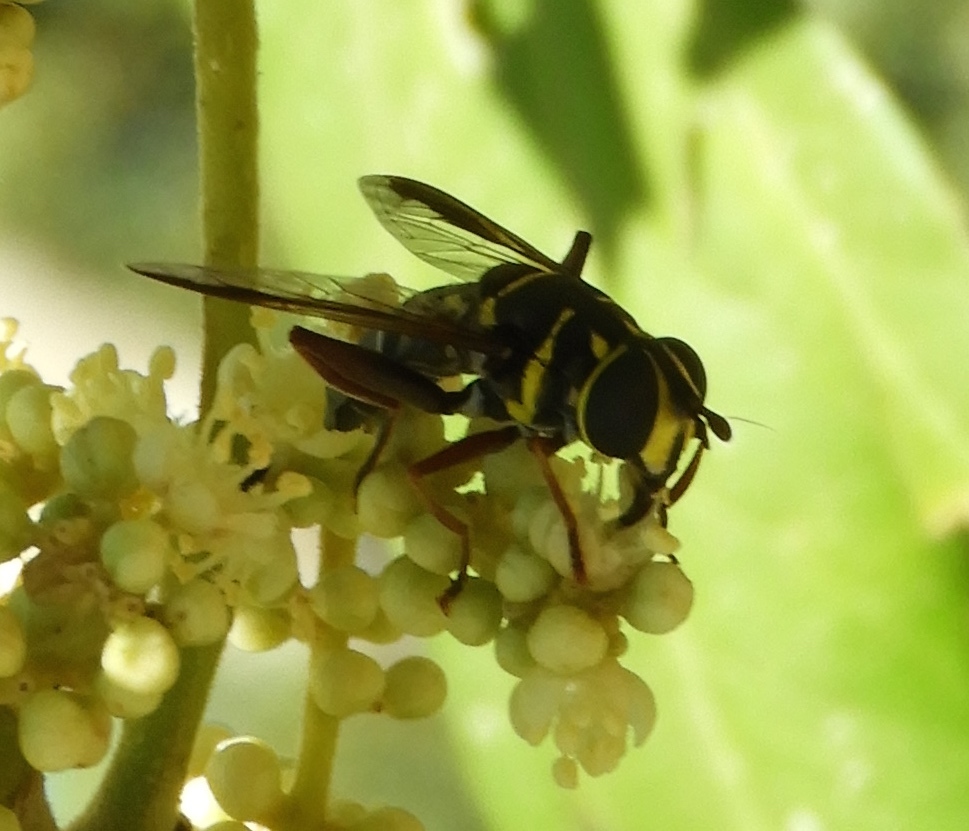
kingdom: Animalia
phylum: Arthropoda
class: Insecta
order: Diptera
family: Syrphidae
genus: Meromacrus
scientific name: Meromacrus
